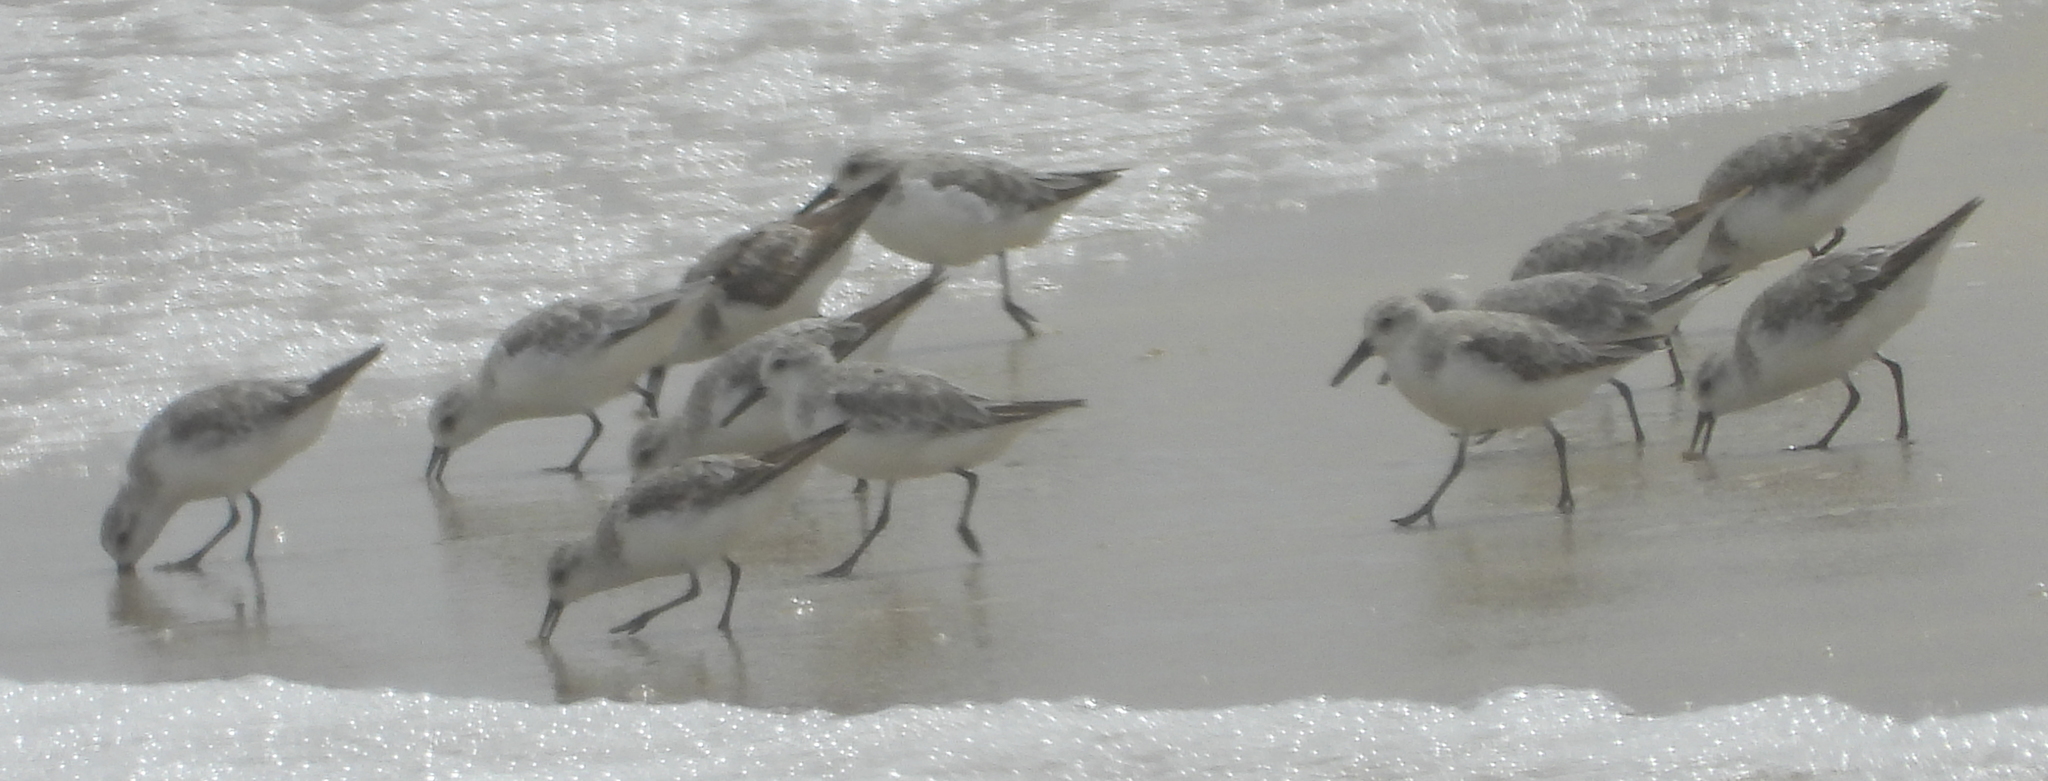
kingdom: Animalia
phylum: Chordata
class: Aves
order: Charadriiformes
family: Scolopacidae
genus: Calidris
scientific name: Calidris alba
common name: Sanderling
